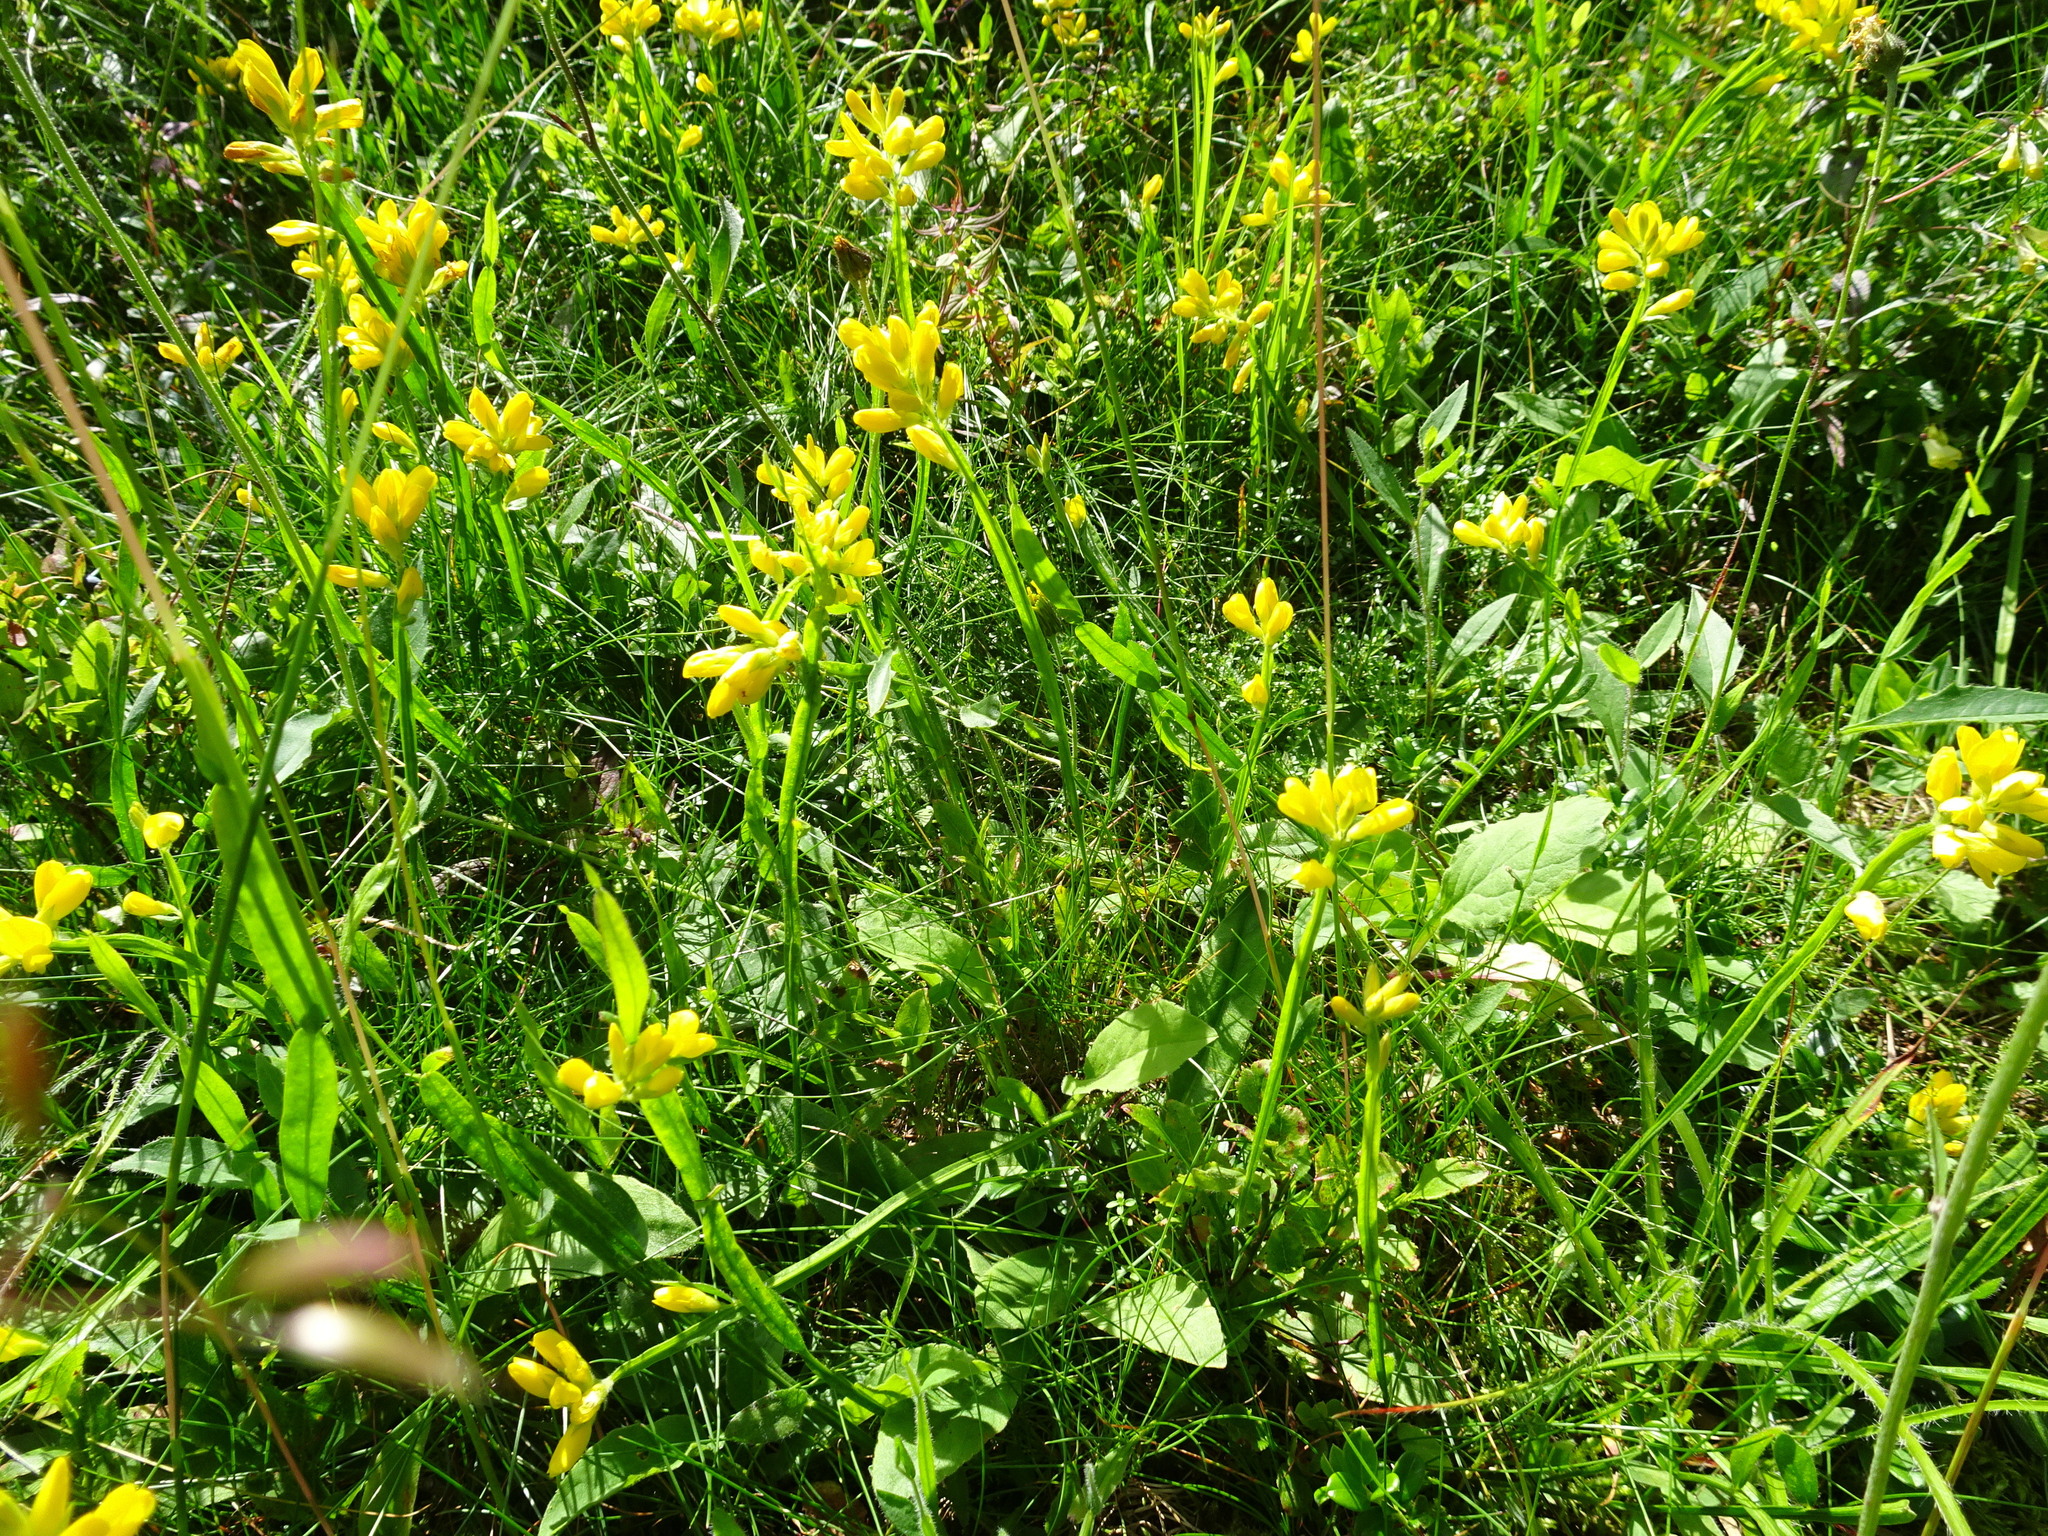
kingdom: Plantae
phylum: Tracheophyta
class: Magnoliopsida
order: Fabales
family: Fabaceae
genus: Genista
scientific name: Genista sagittalis
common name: Winged greenweed
